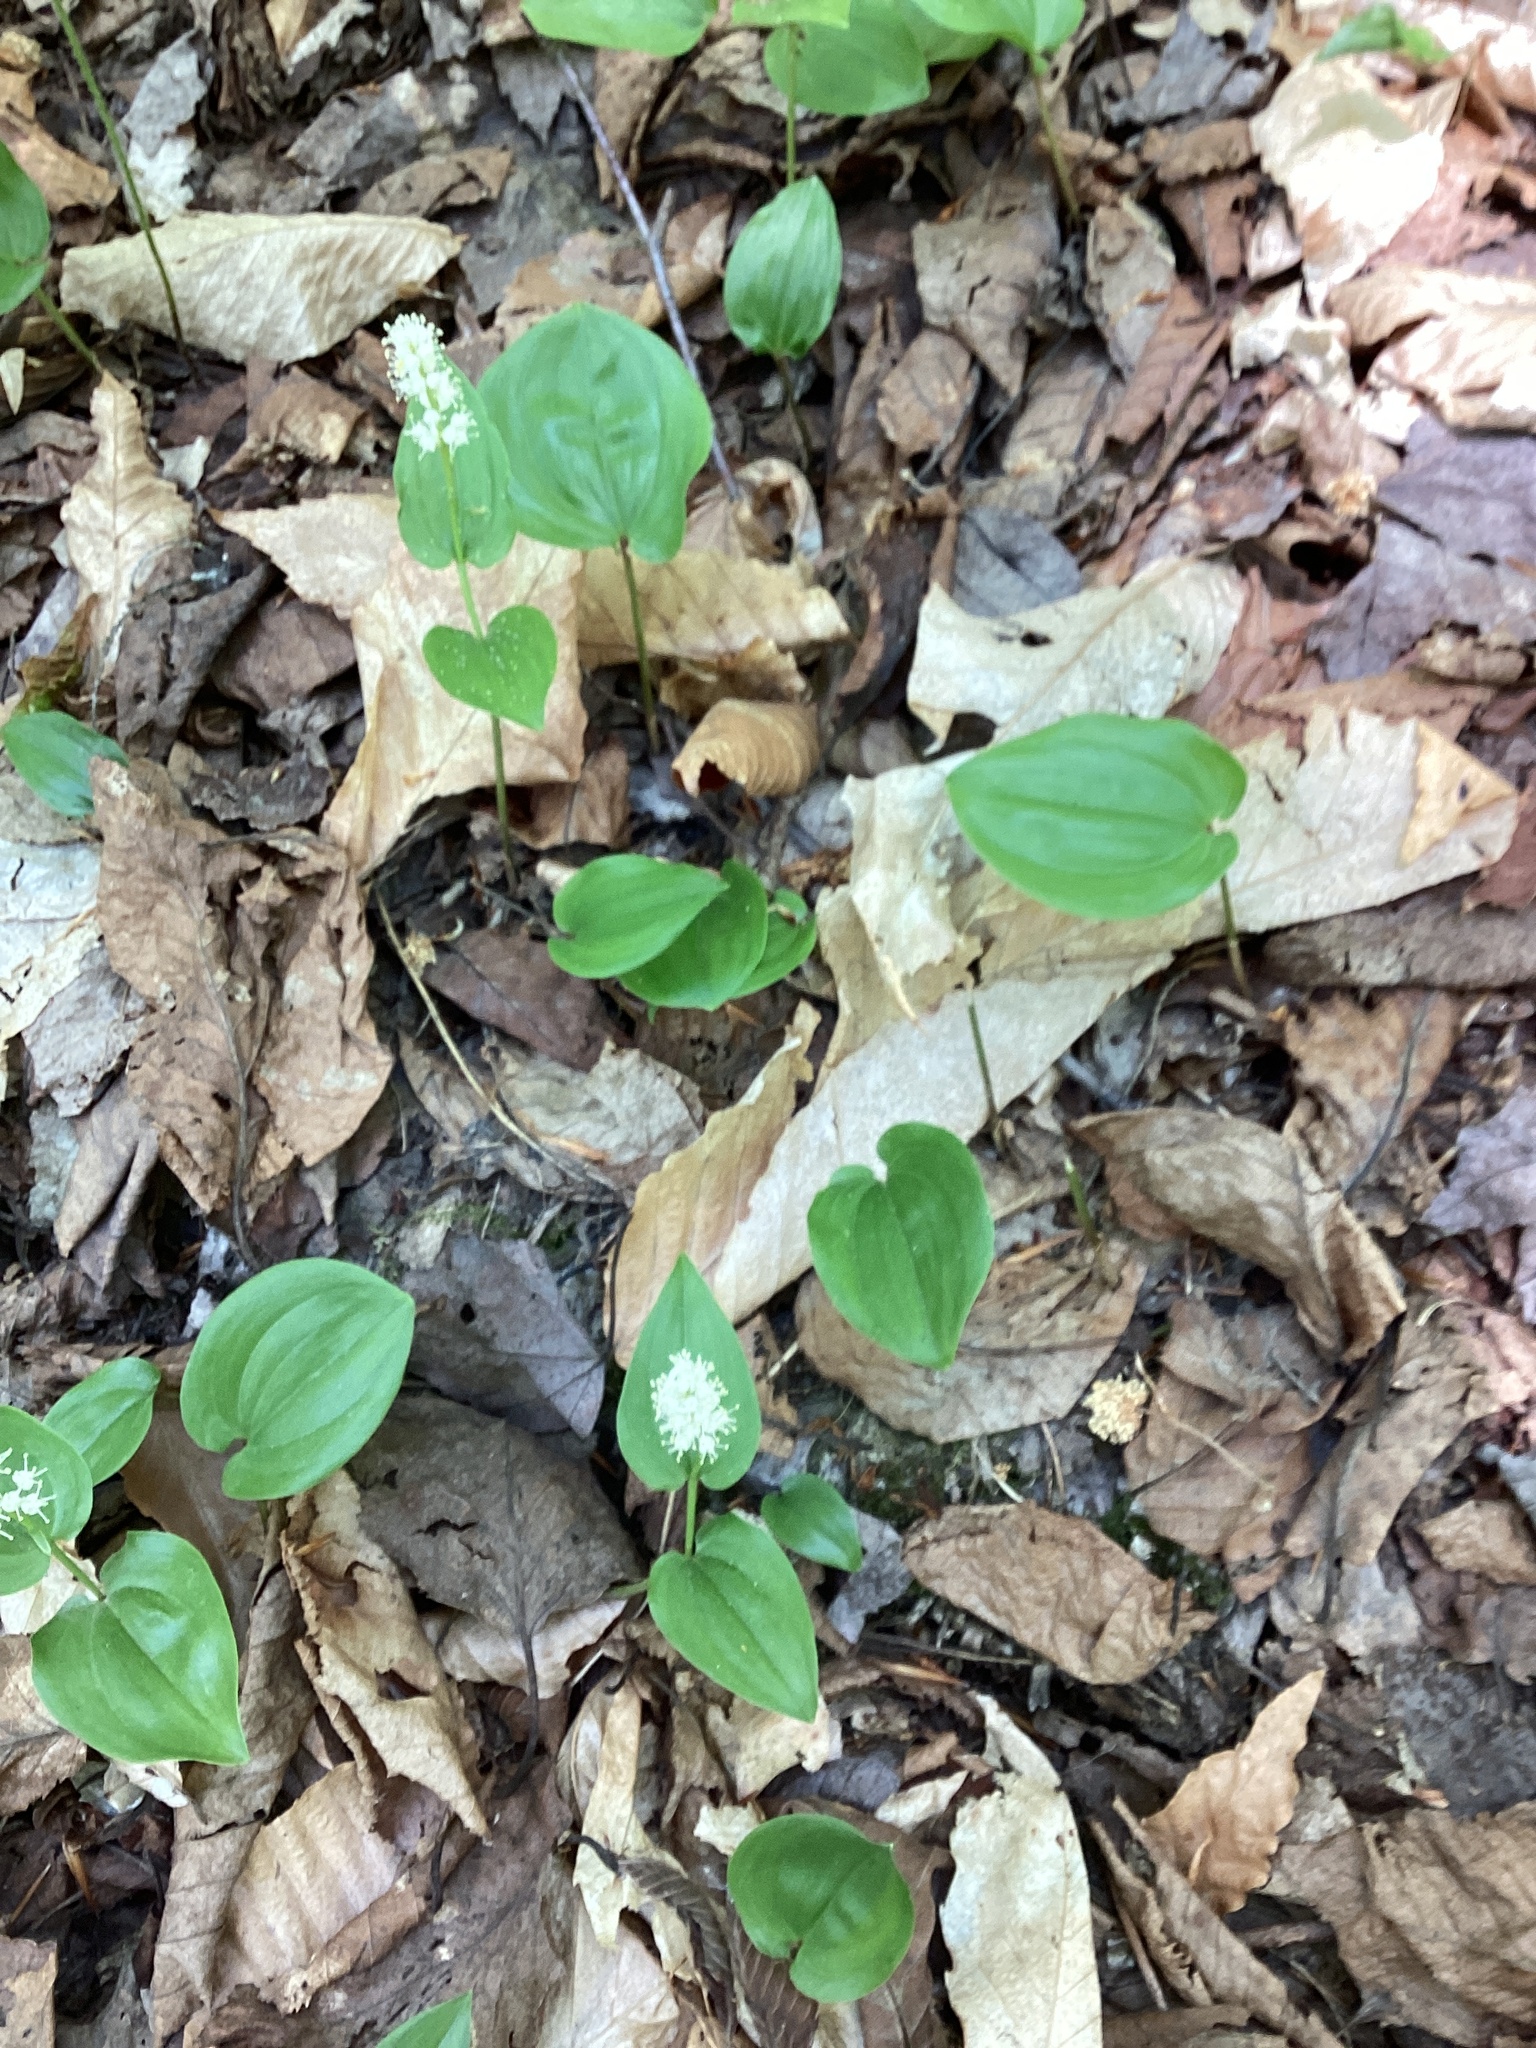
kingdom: Plantae
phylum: Tracheophyta
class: Liliopsida
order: Asparagales
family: Asparagaceae
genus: Maianthemum
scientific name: Maianthemum canadense
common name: False lily-of-the-valley
